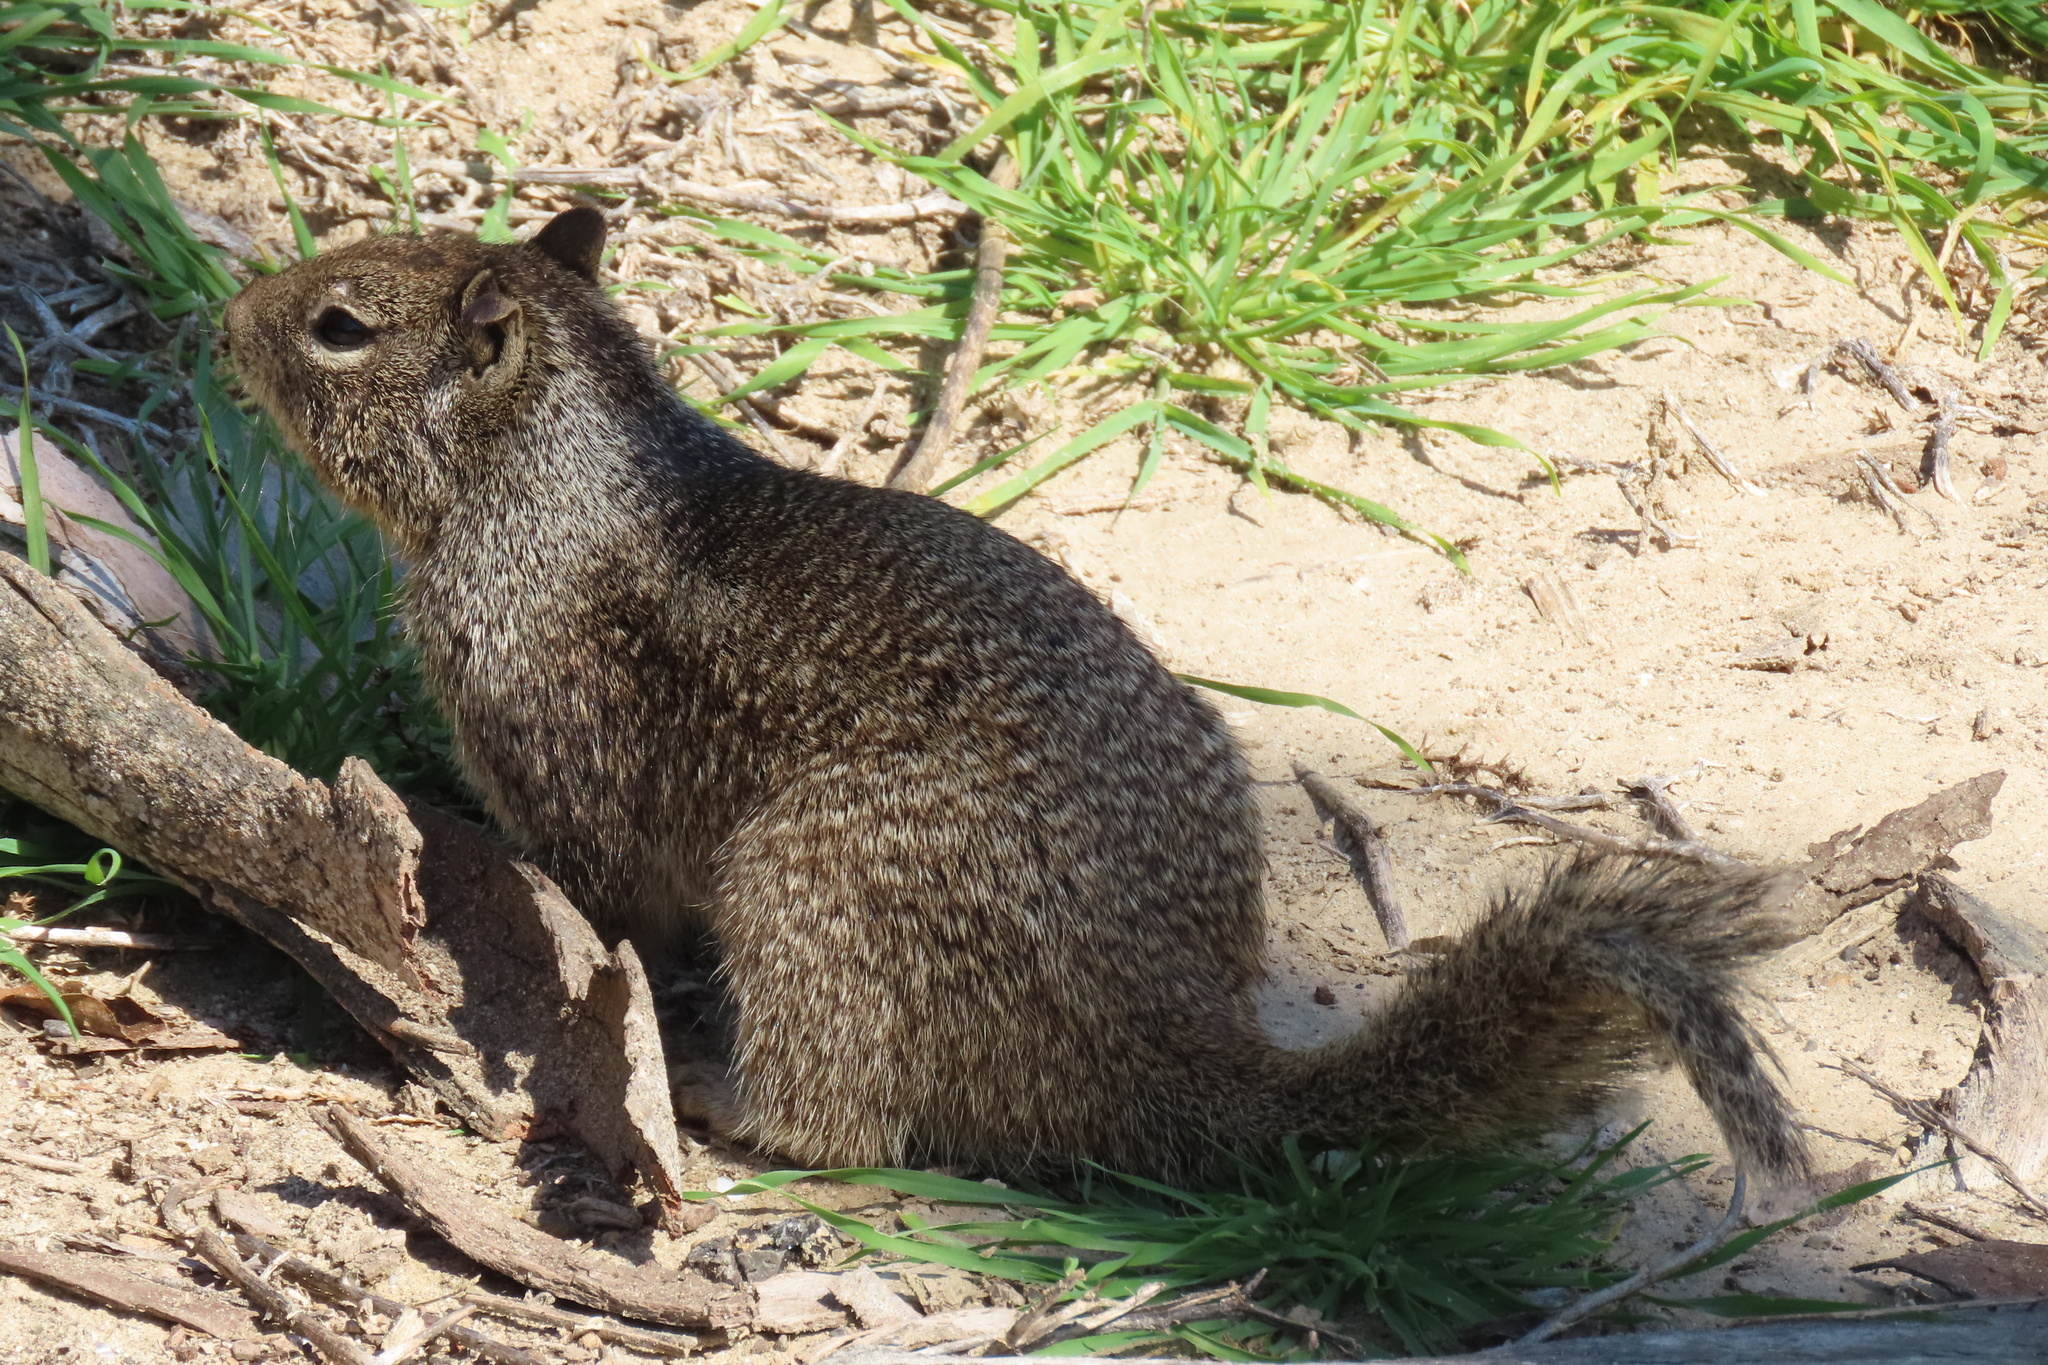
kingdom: Animalia
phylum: Chordata
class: Mammalia
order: Rodentia
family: Sciuridae
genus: Otospermophilus
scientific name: Otospermophilus beecheyi
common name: California ground squirrel
